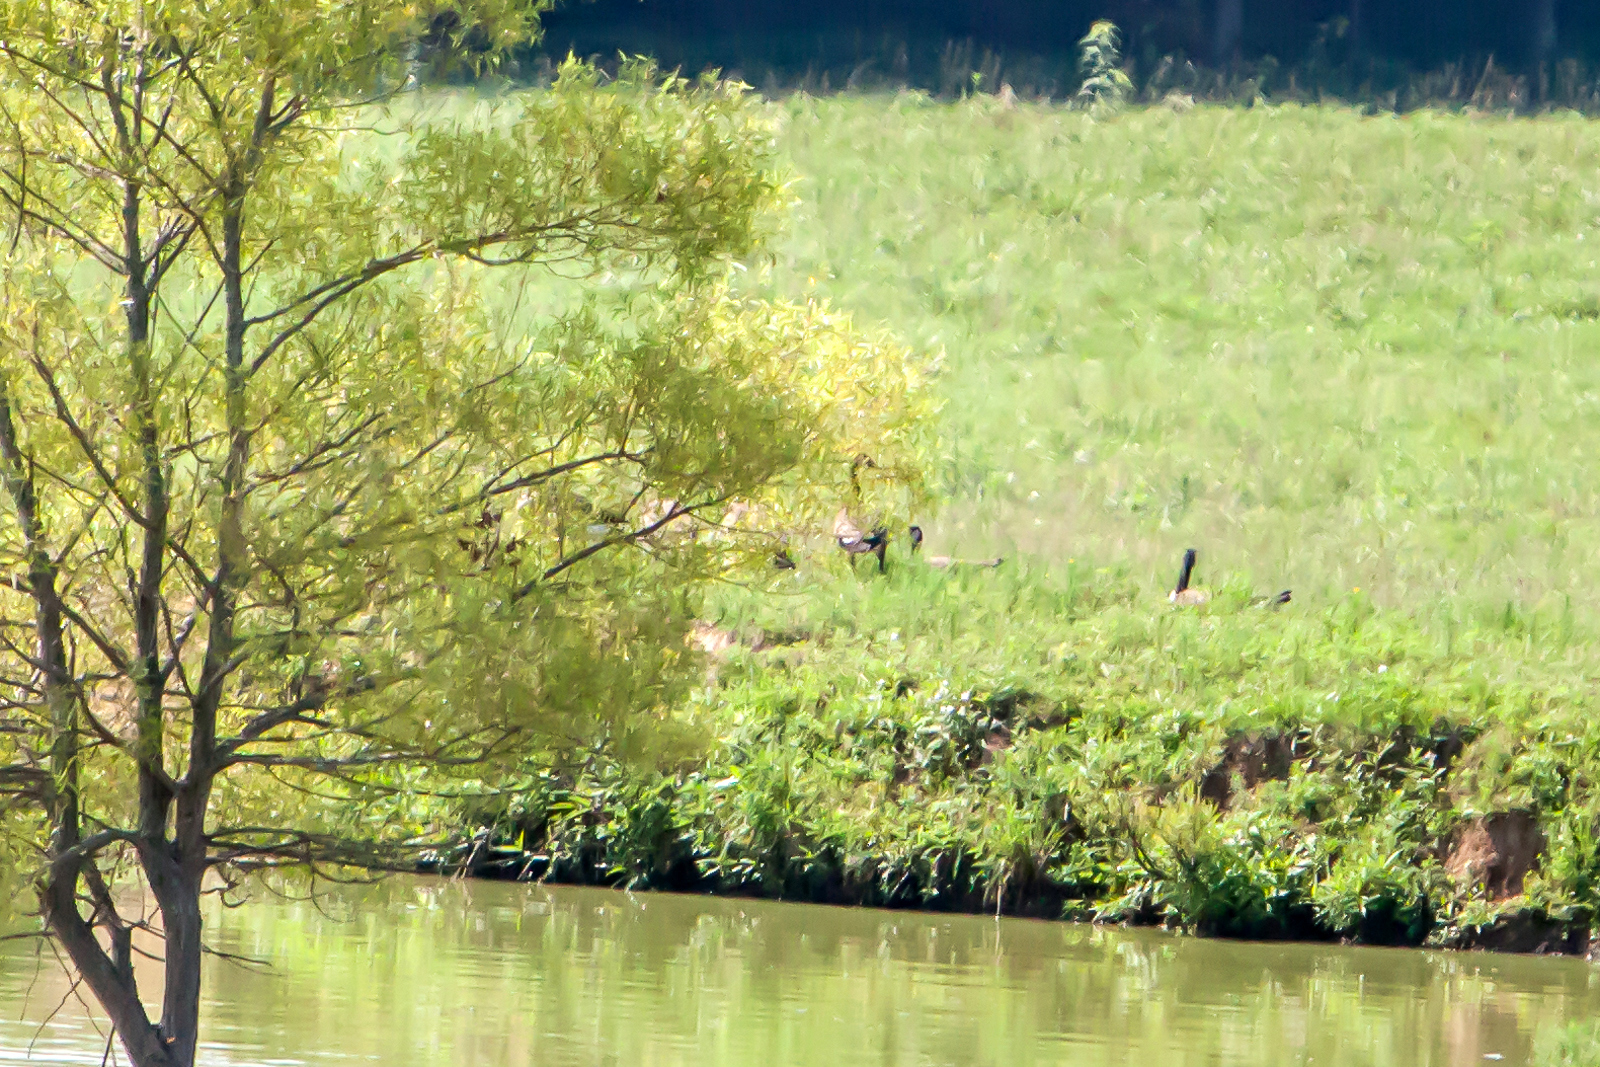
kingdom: Animalia
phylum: Chordata
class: Aves
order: Anseriformes
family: Anatidae
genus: Branta
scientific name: Branta canadensis
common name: Canada goose
